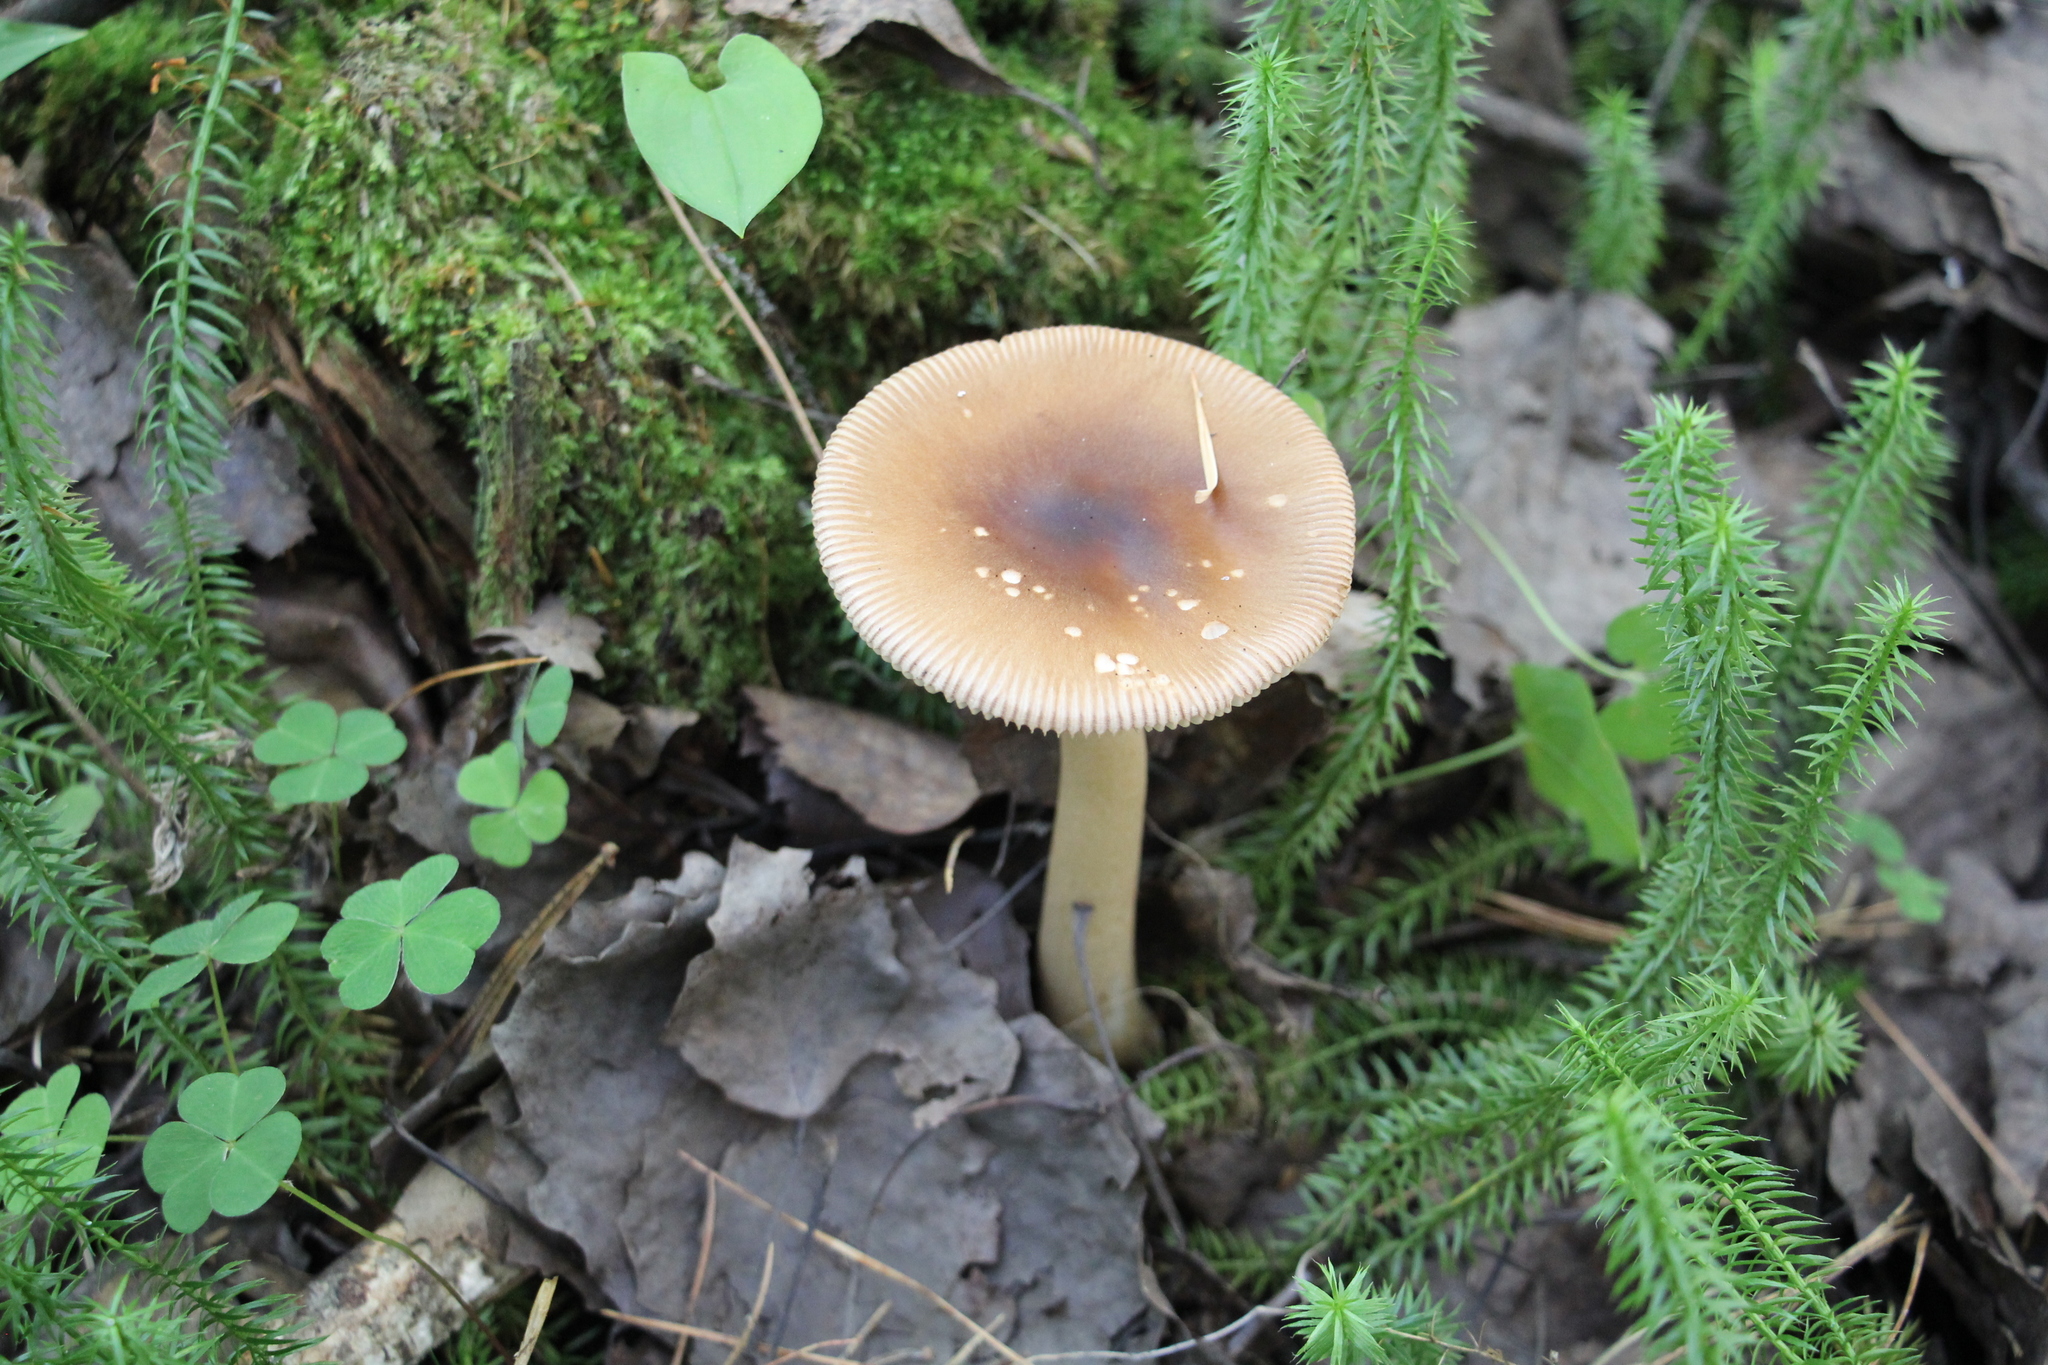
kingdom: Fungi
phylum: Basidiomycota
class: Agaricomycetes
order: Agaricales
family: Amanitaceae
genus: Amanita
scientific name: Amanita fulva
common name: Tawny grisette
